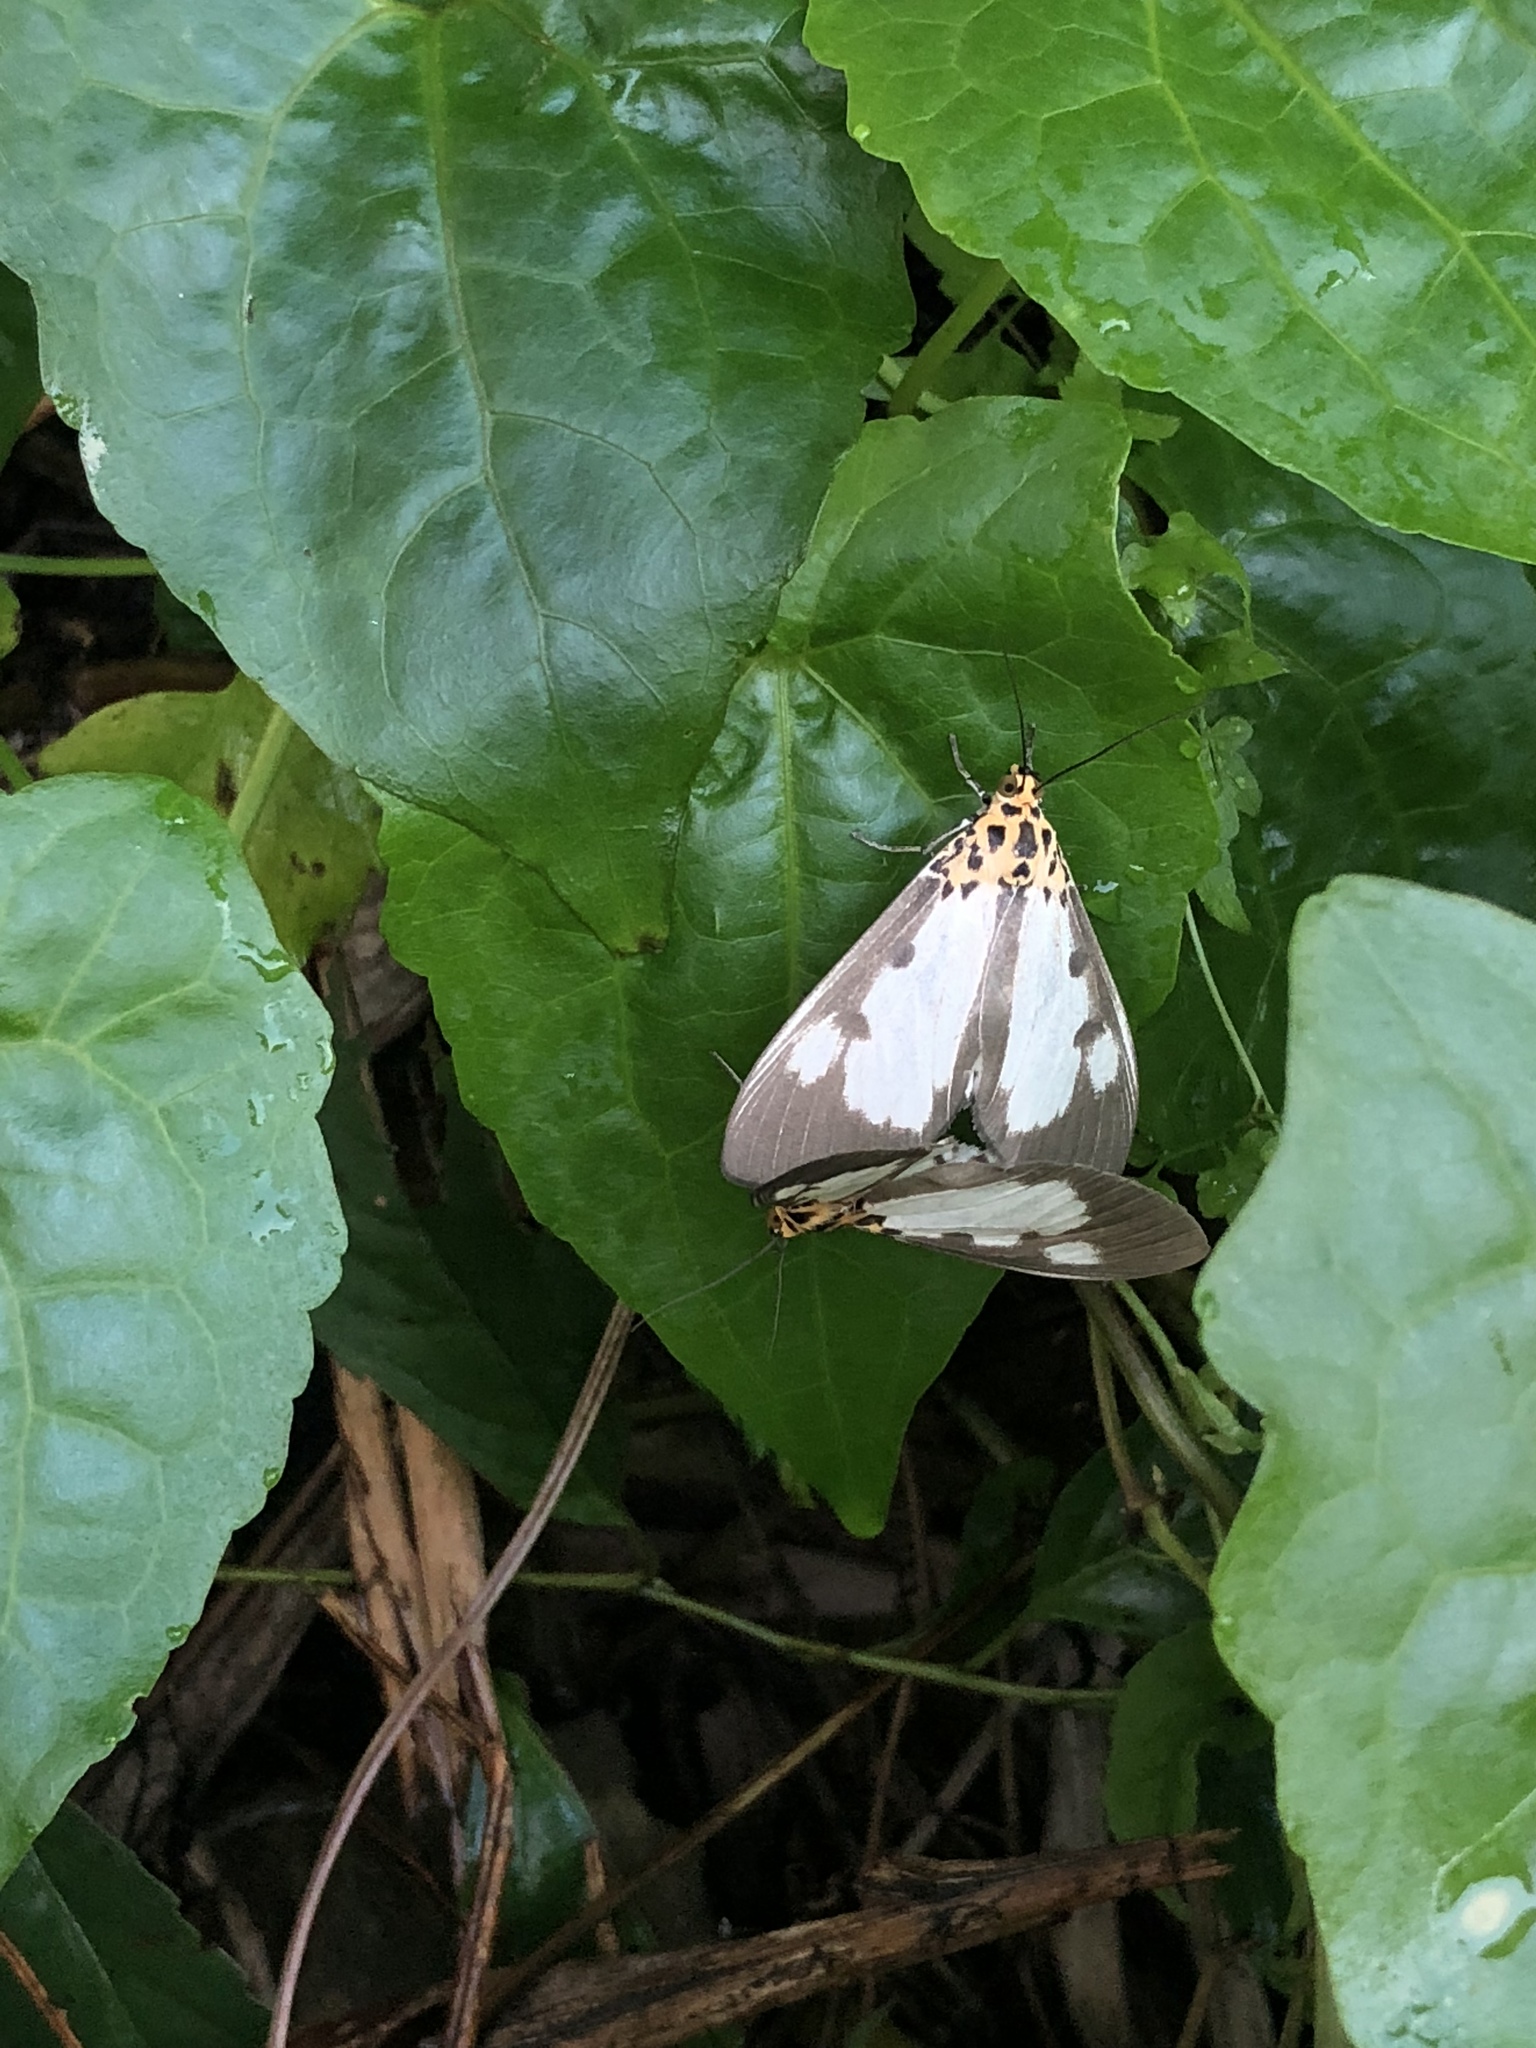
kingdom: Animalia
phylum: Arthropoda
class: Insecta
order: Lepidoptera
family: Erebidae
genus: Asota
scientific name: Asota plana
